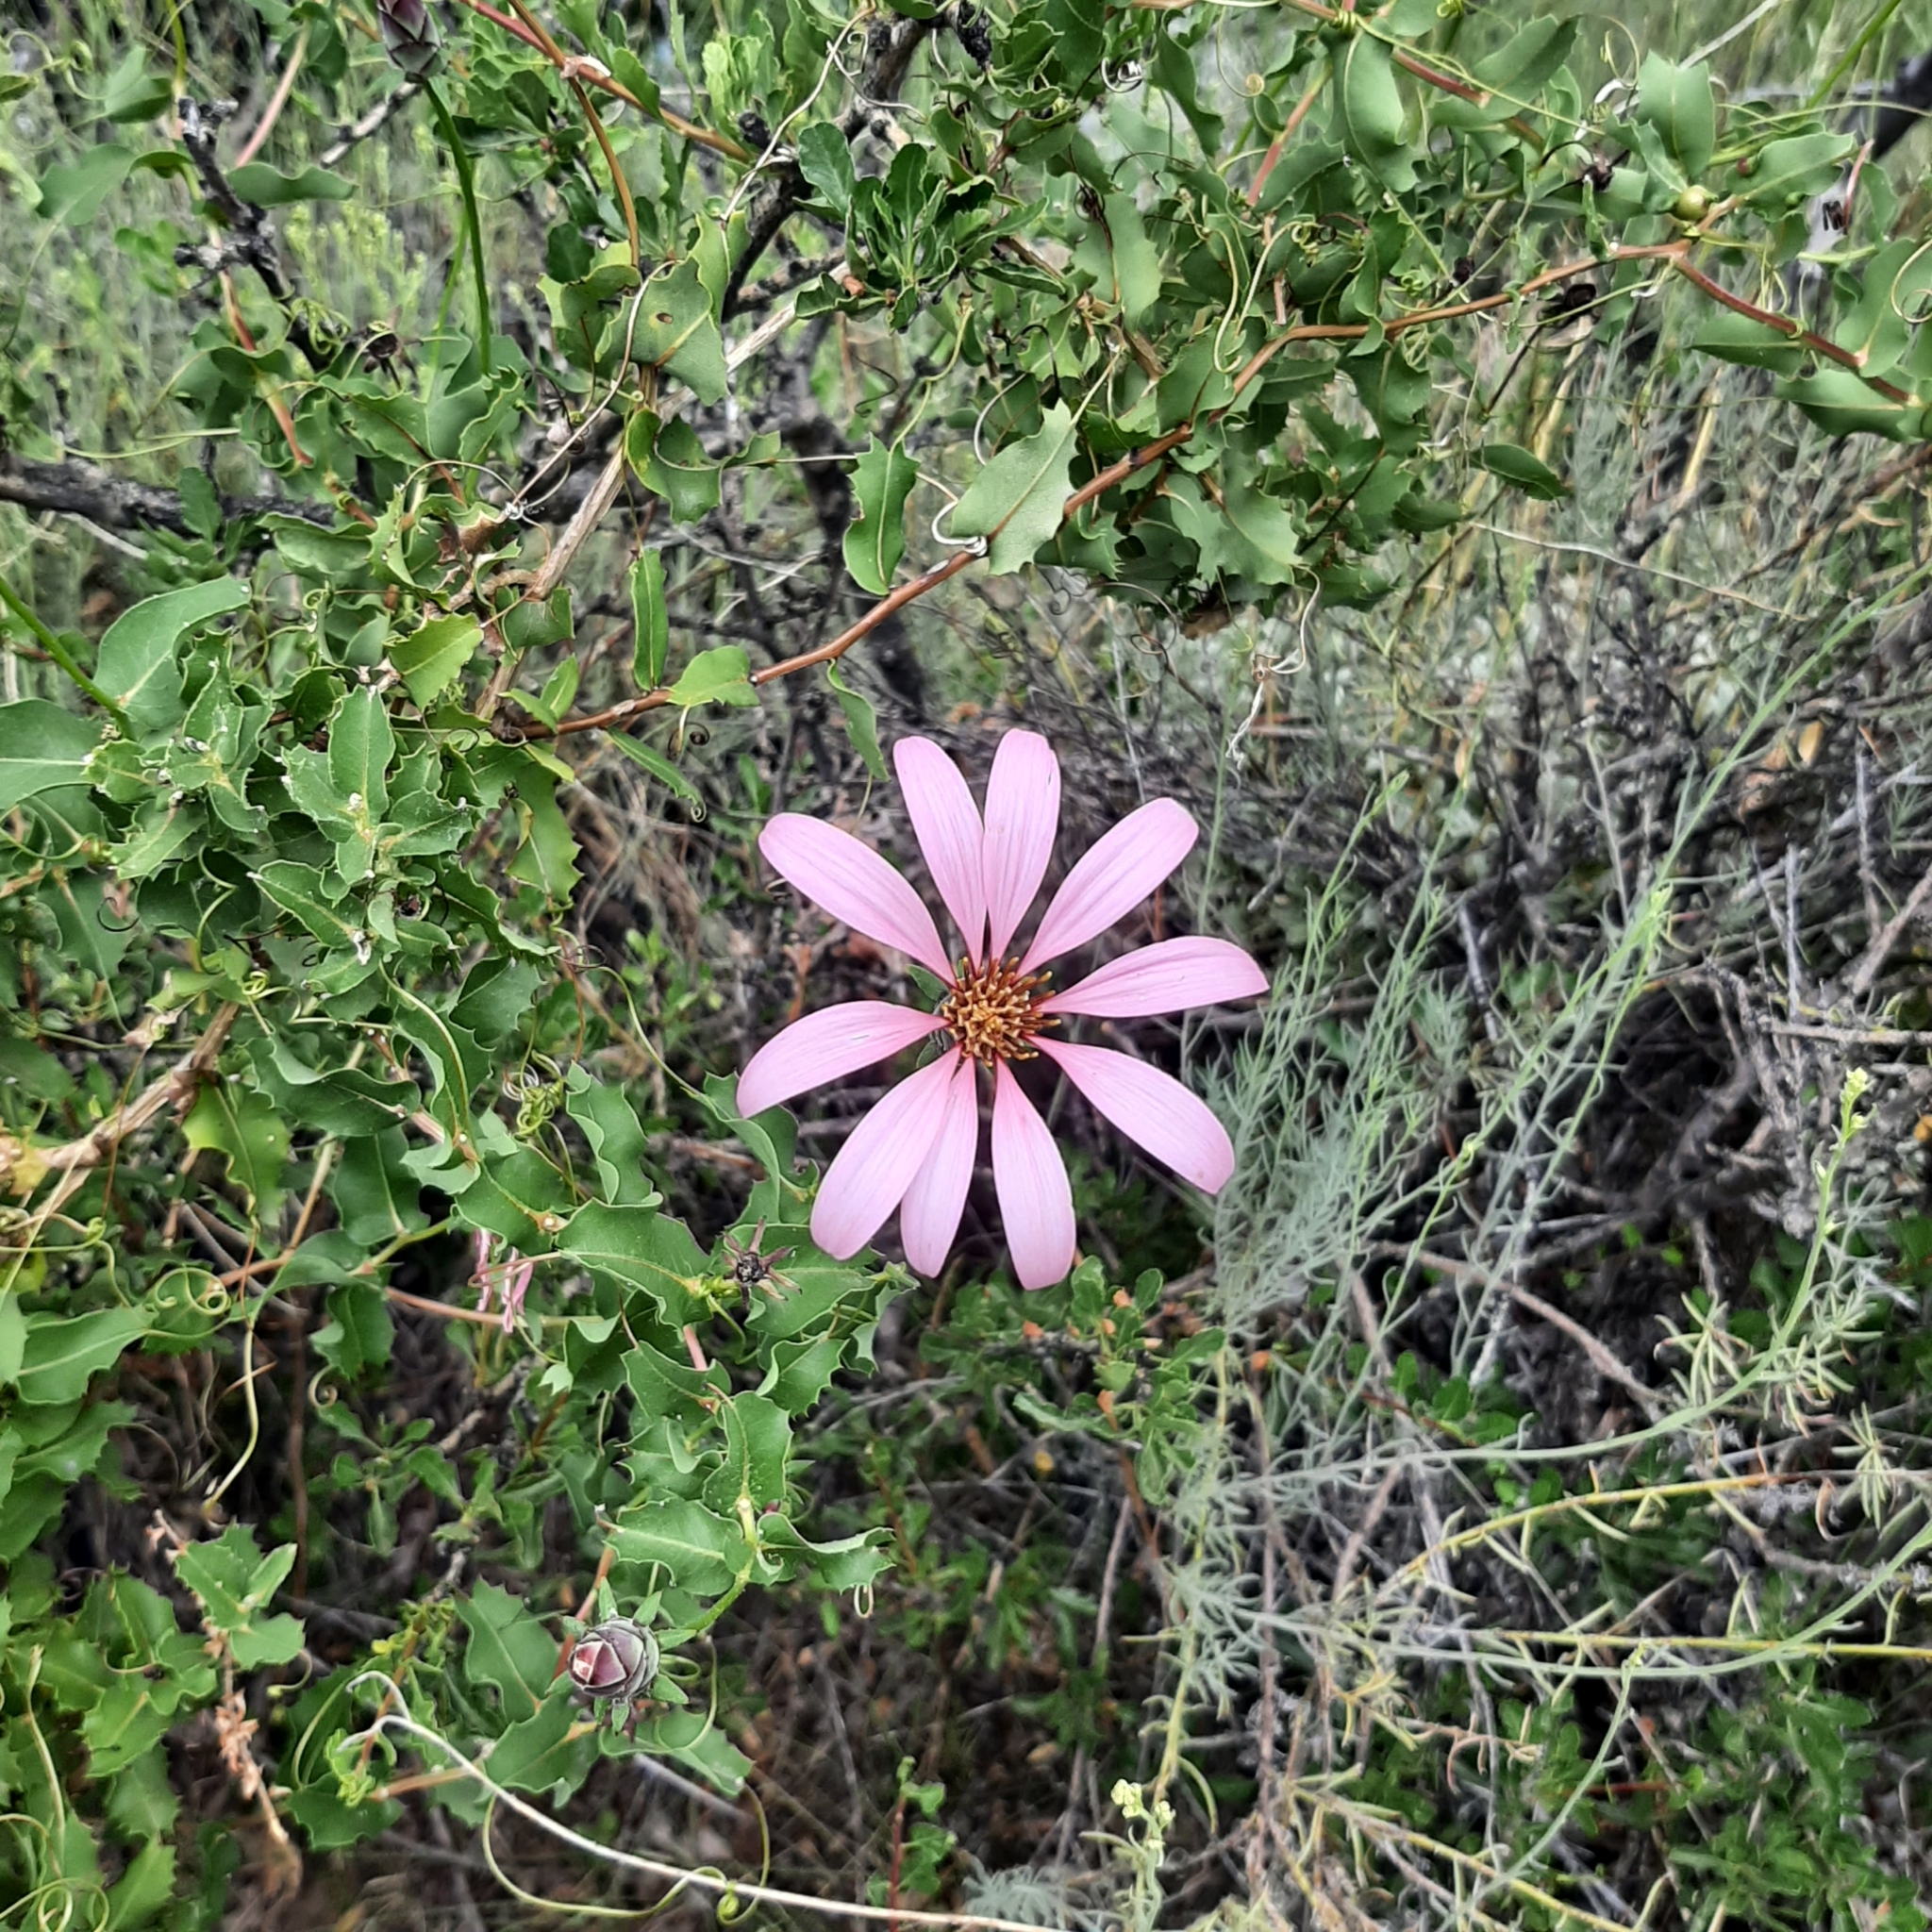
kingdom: Plantae
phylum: Tracheophyta
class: Magnoliopsida
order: Asterales
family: Asteraceae
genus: Mutisia
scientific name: Mutisia spinosa
